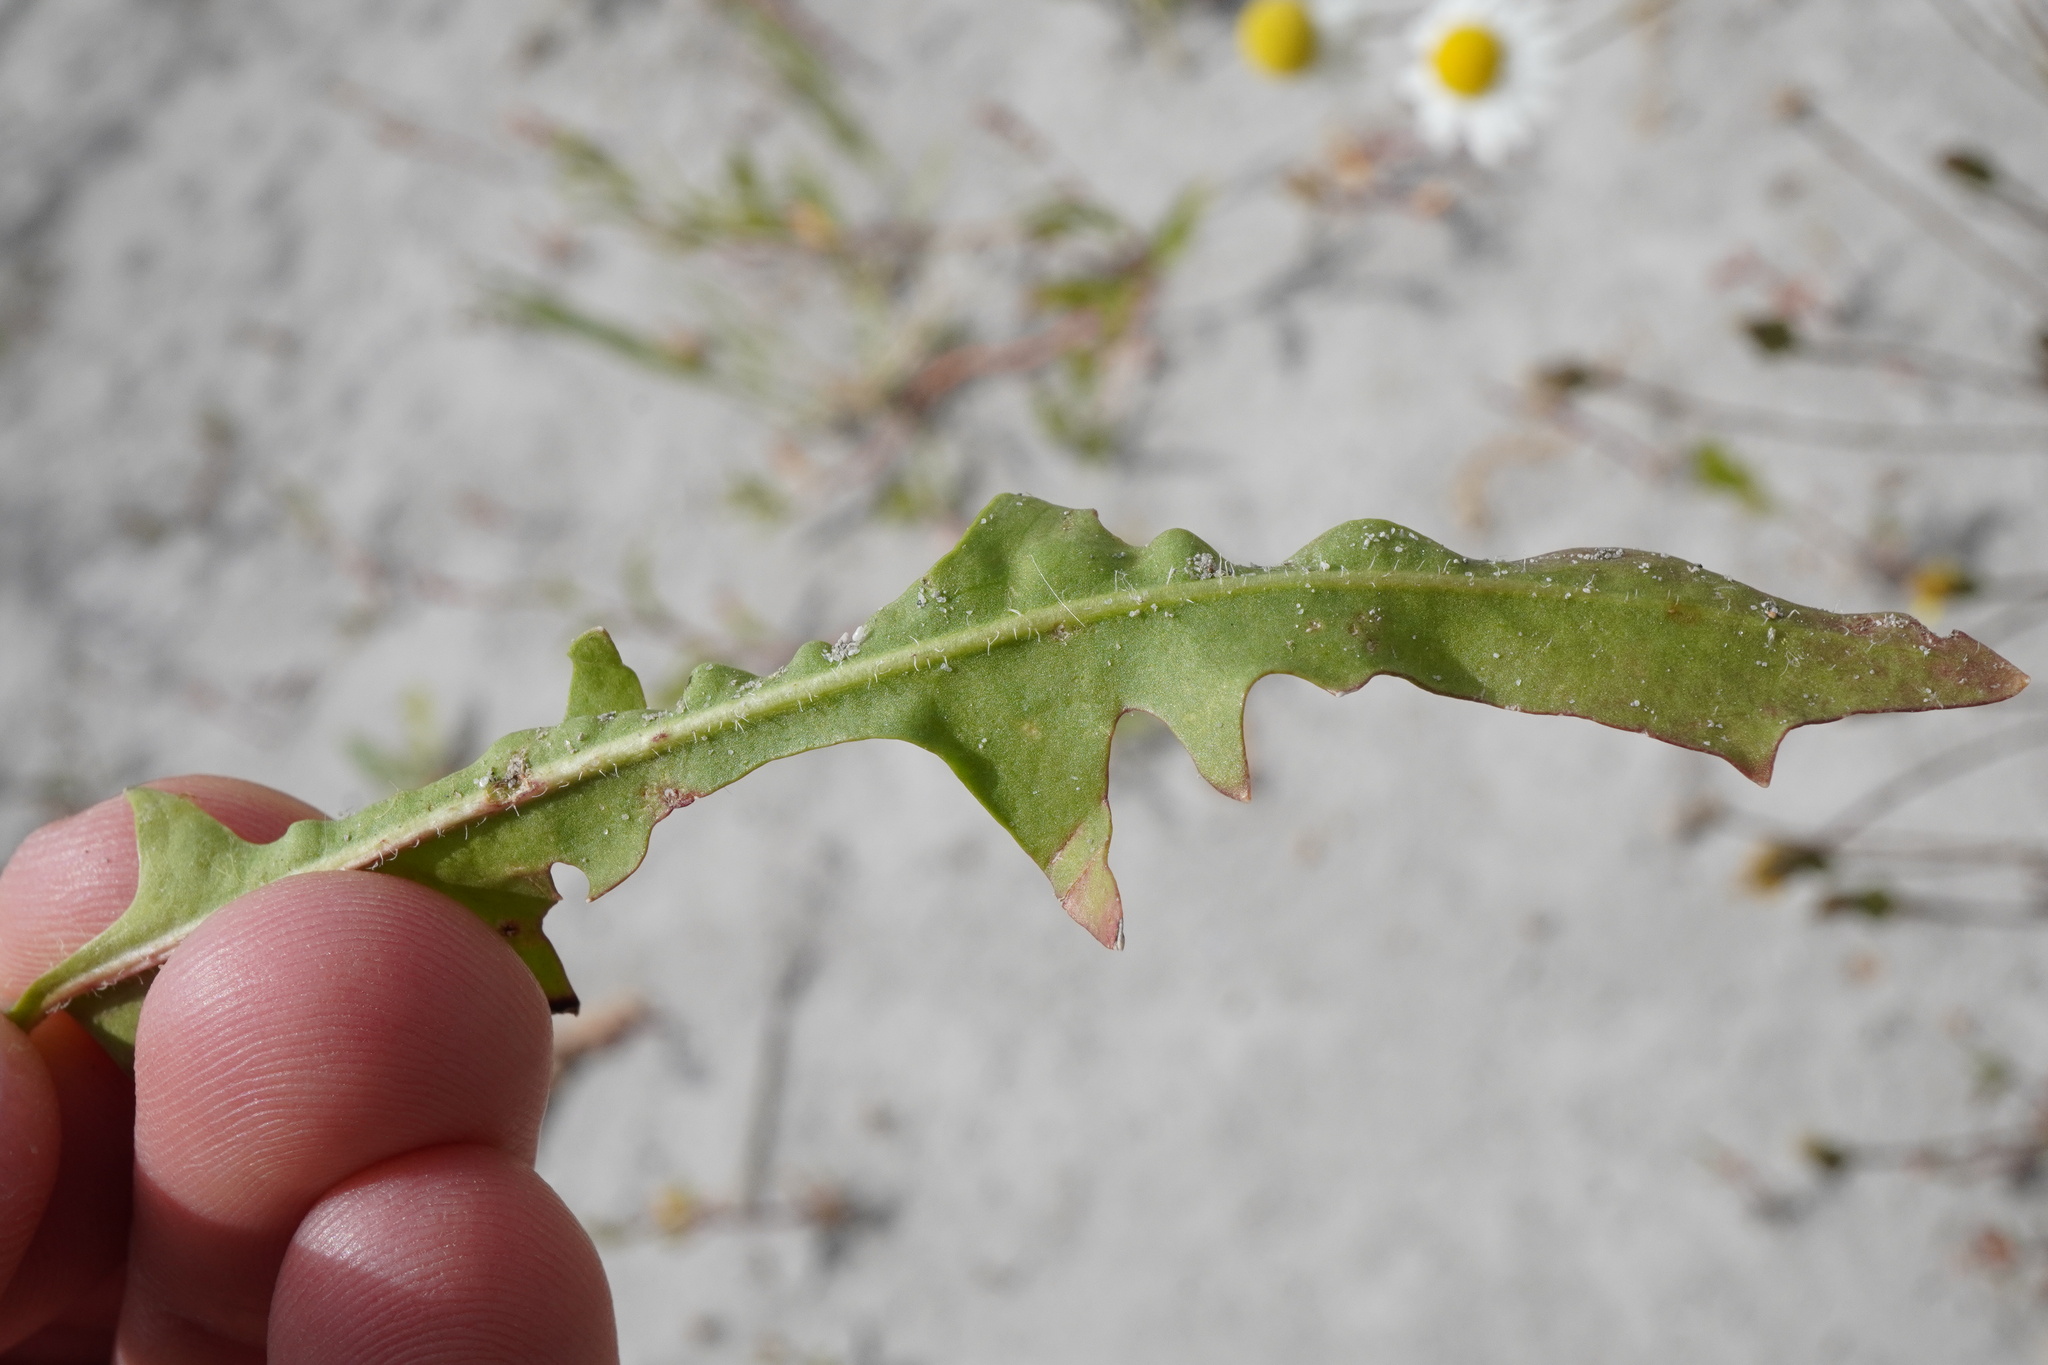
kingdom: Plantae
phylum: Tracheophyta
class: Magnoliopsida
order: Asterales
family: Asteraceae
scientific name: Asteraceae
